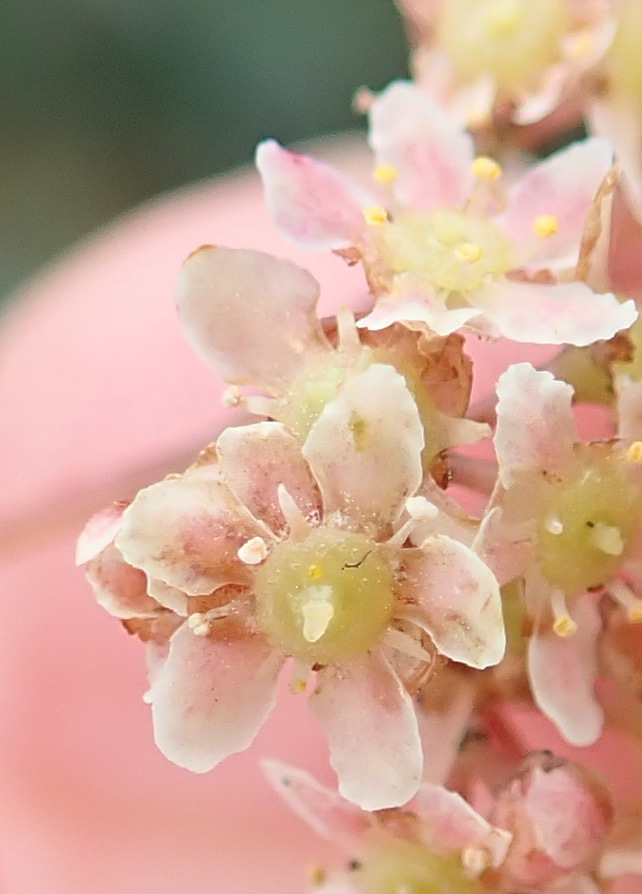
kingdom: Plantae
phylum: Tracheophyta
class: Magnoliopsida
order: Celastrales
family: Celastraceae
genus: Pterocelastrus
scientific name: Pterocelastrus rostratus
